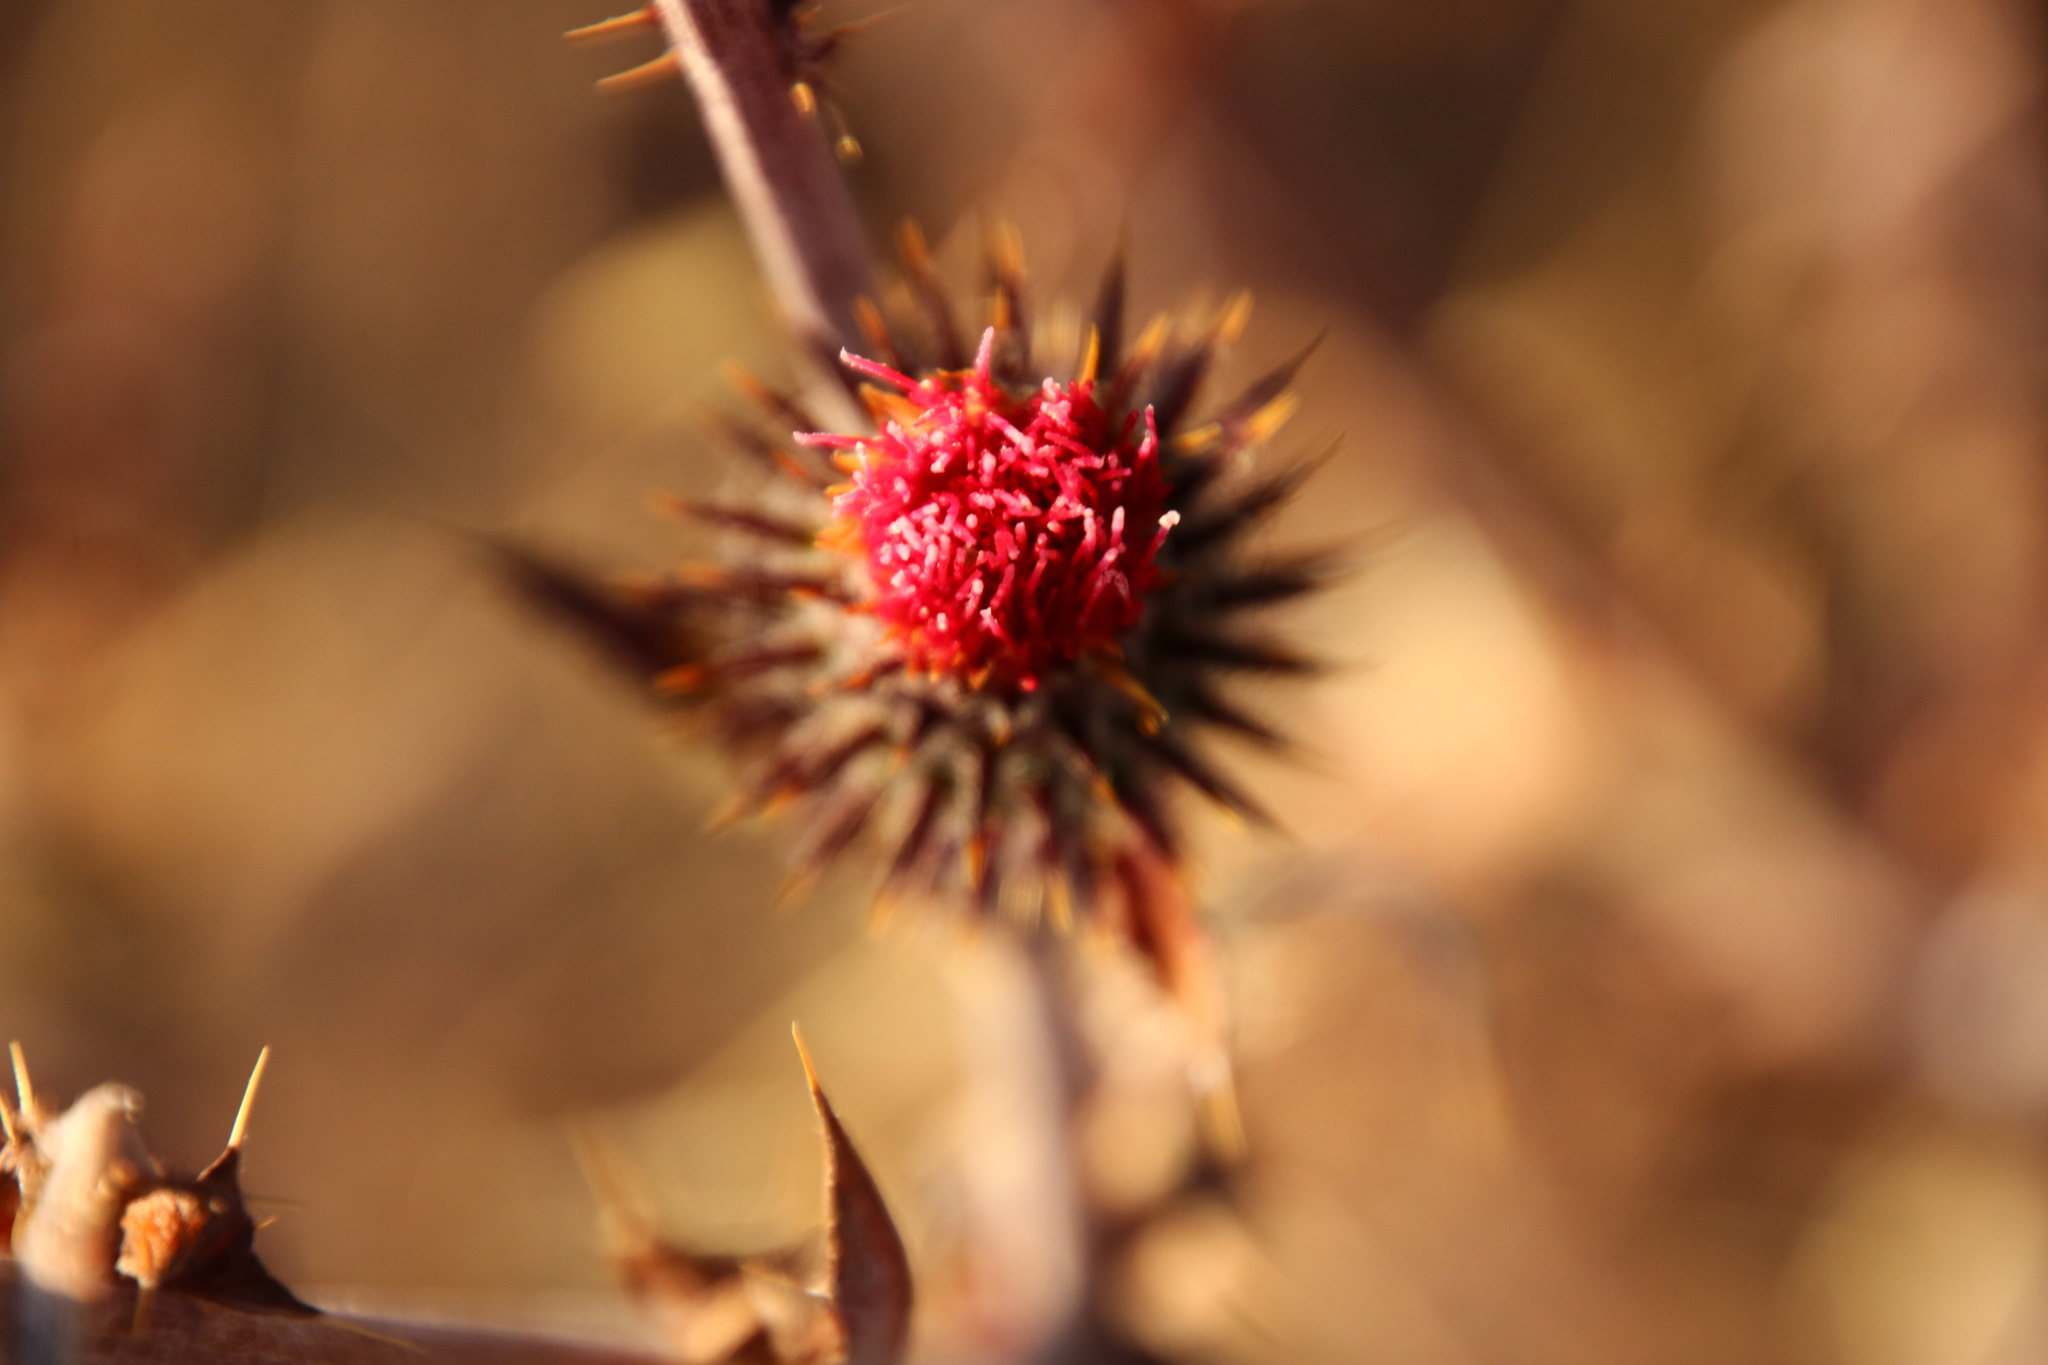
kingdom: Plantae
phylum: Tracheophyta
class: Magnoliopsida
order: Asterales
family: Asteraceae
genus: Cirsium
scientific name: Cirsium occidentale
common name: Western thistle
